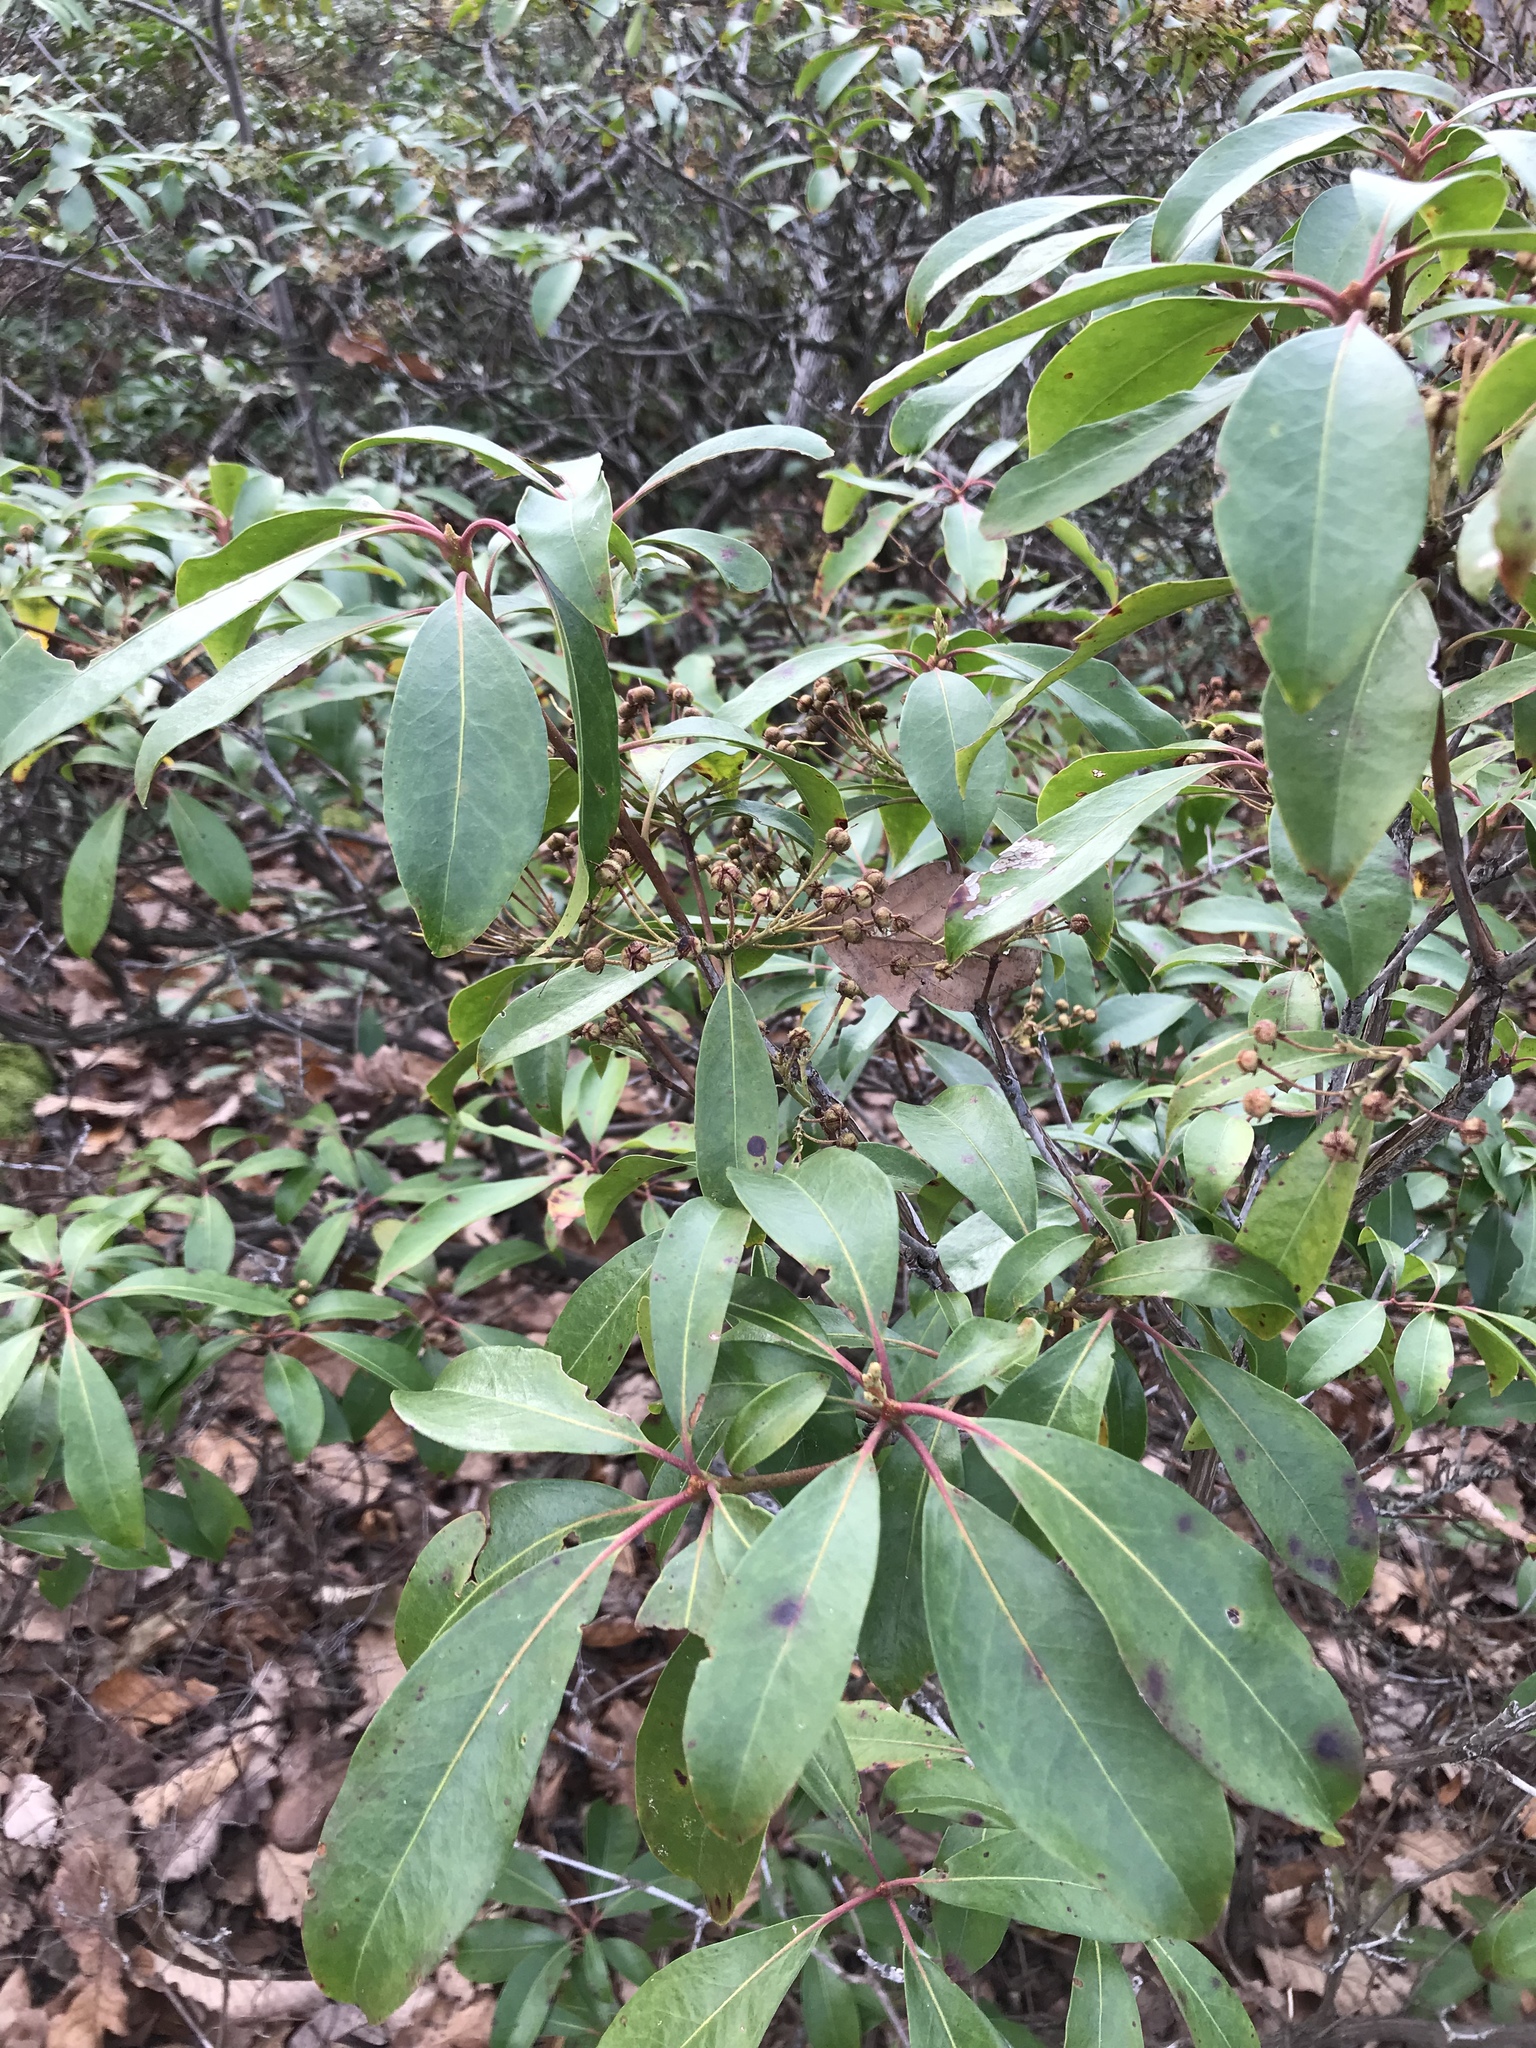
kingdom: Plantae
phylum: Tracheophyta
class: Magnoliopsida
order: Ericales
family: Ericaceae
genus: Kalmia
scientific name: Kalmia latifolia
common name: Mountain-laurel
